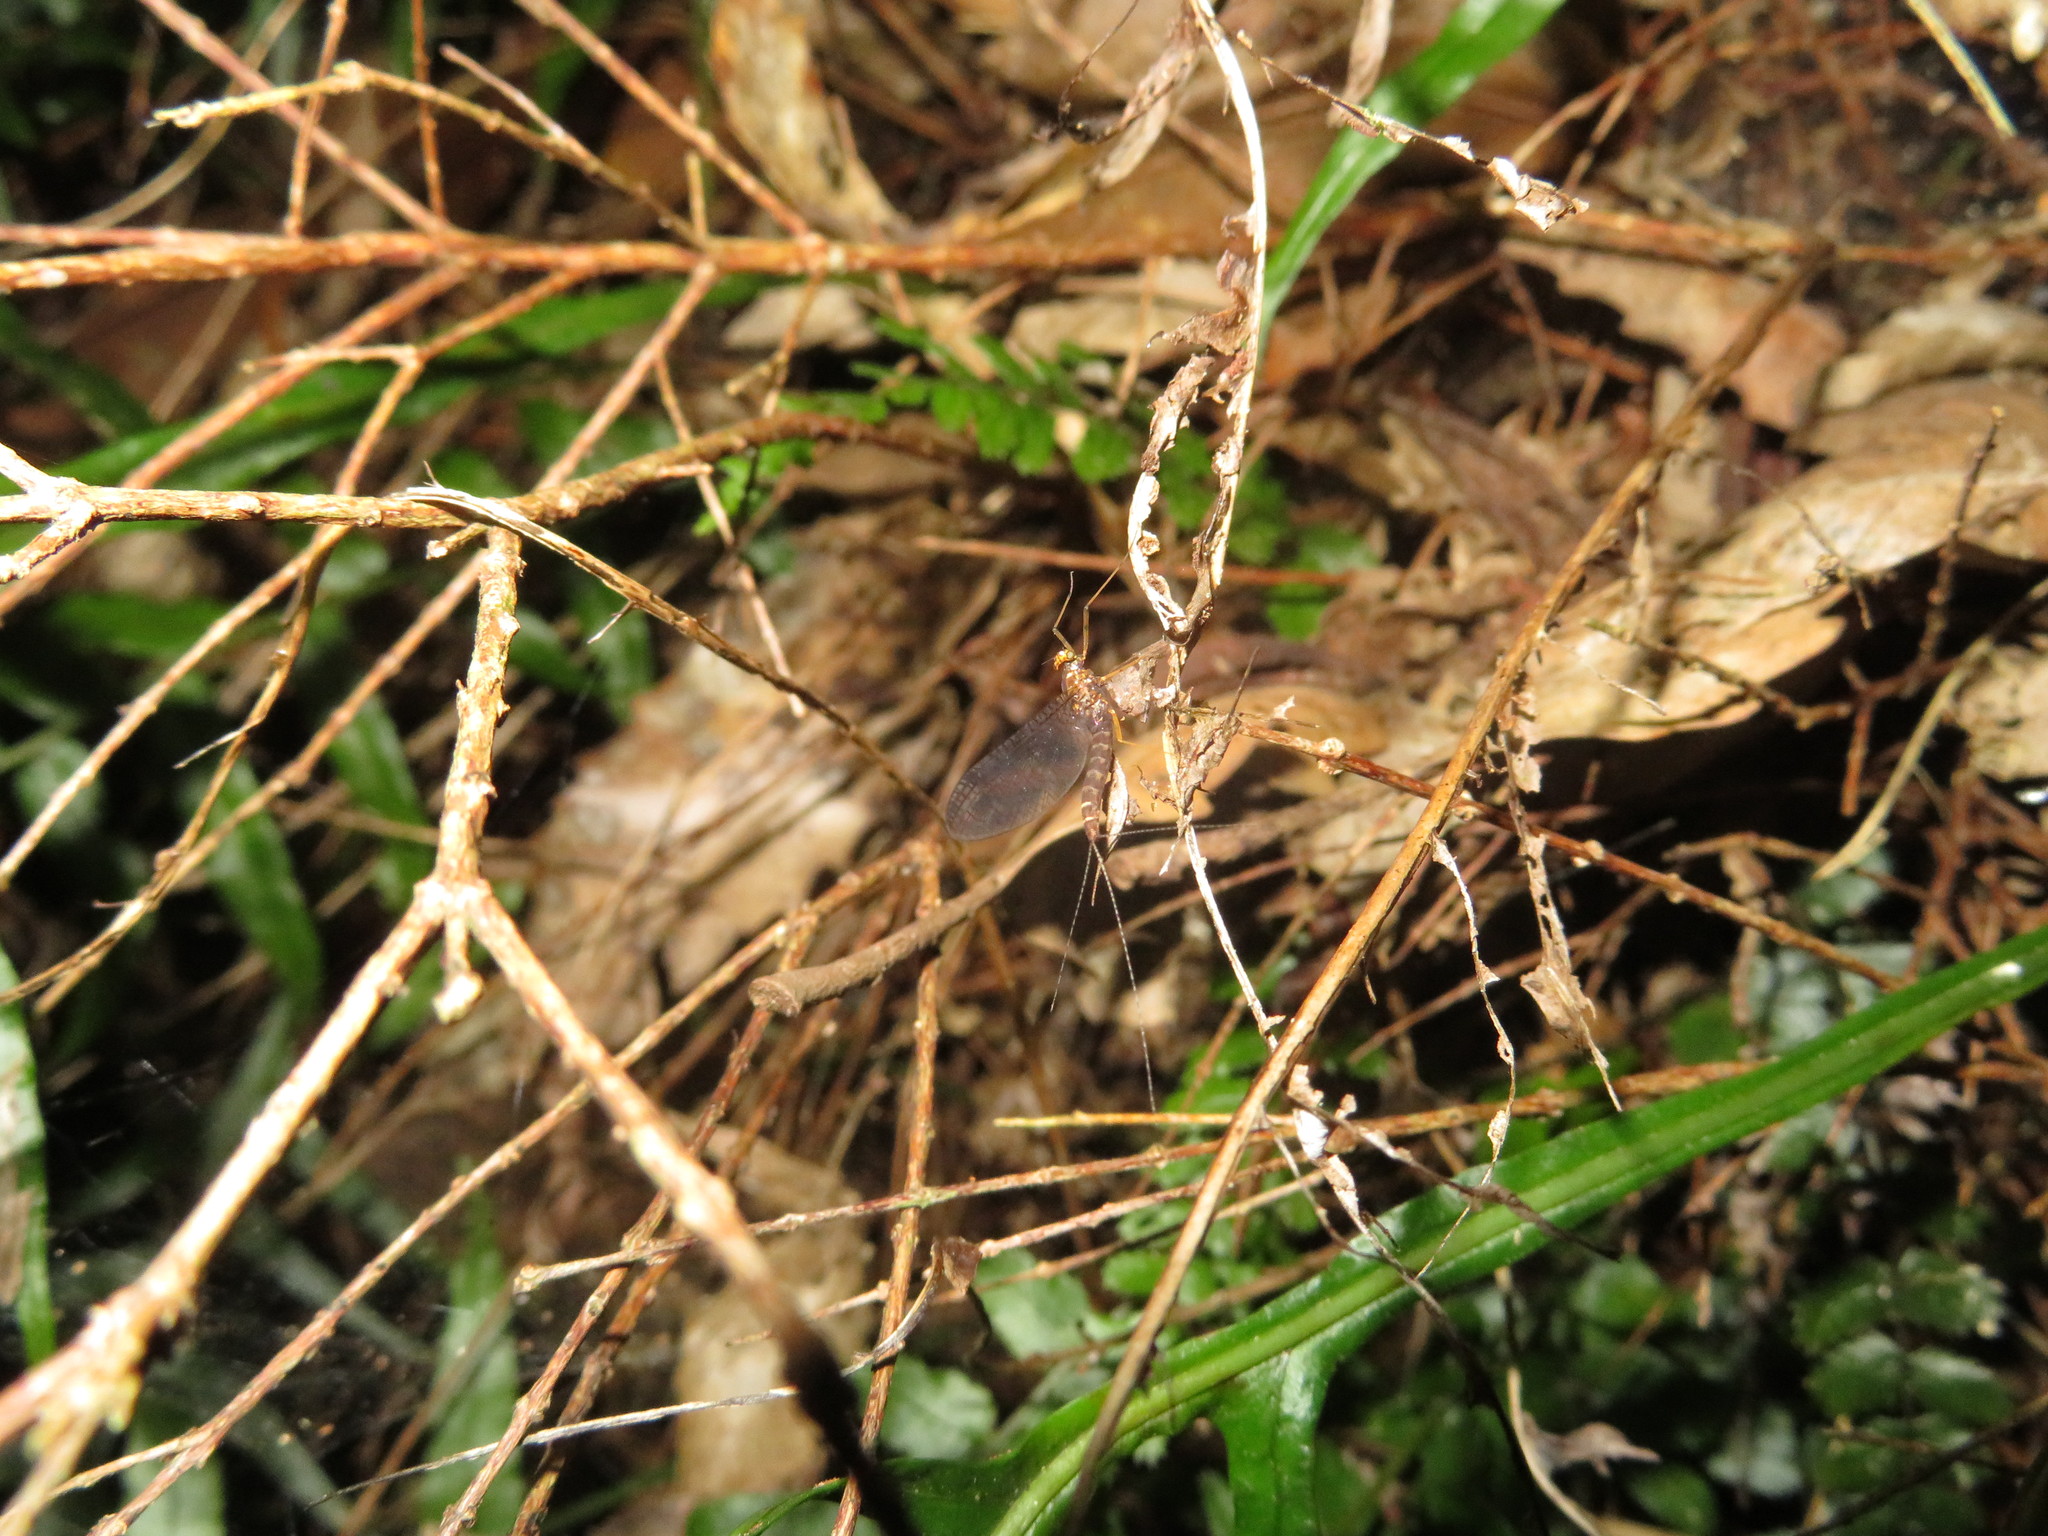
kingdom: Animalia
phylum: Arthropoda
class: Insecta
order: Ephemeroptera
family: Leptophlebiidae
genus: Neozephlebia
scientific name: Neozephlebia scita
